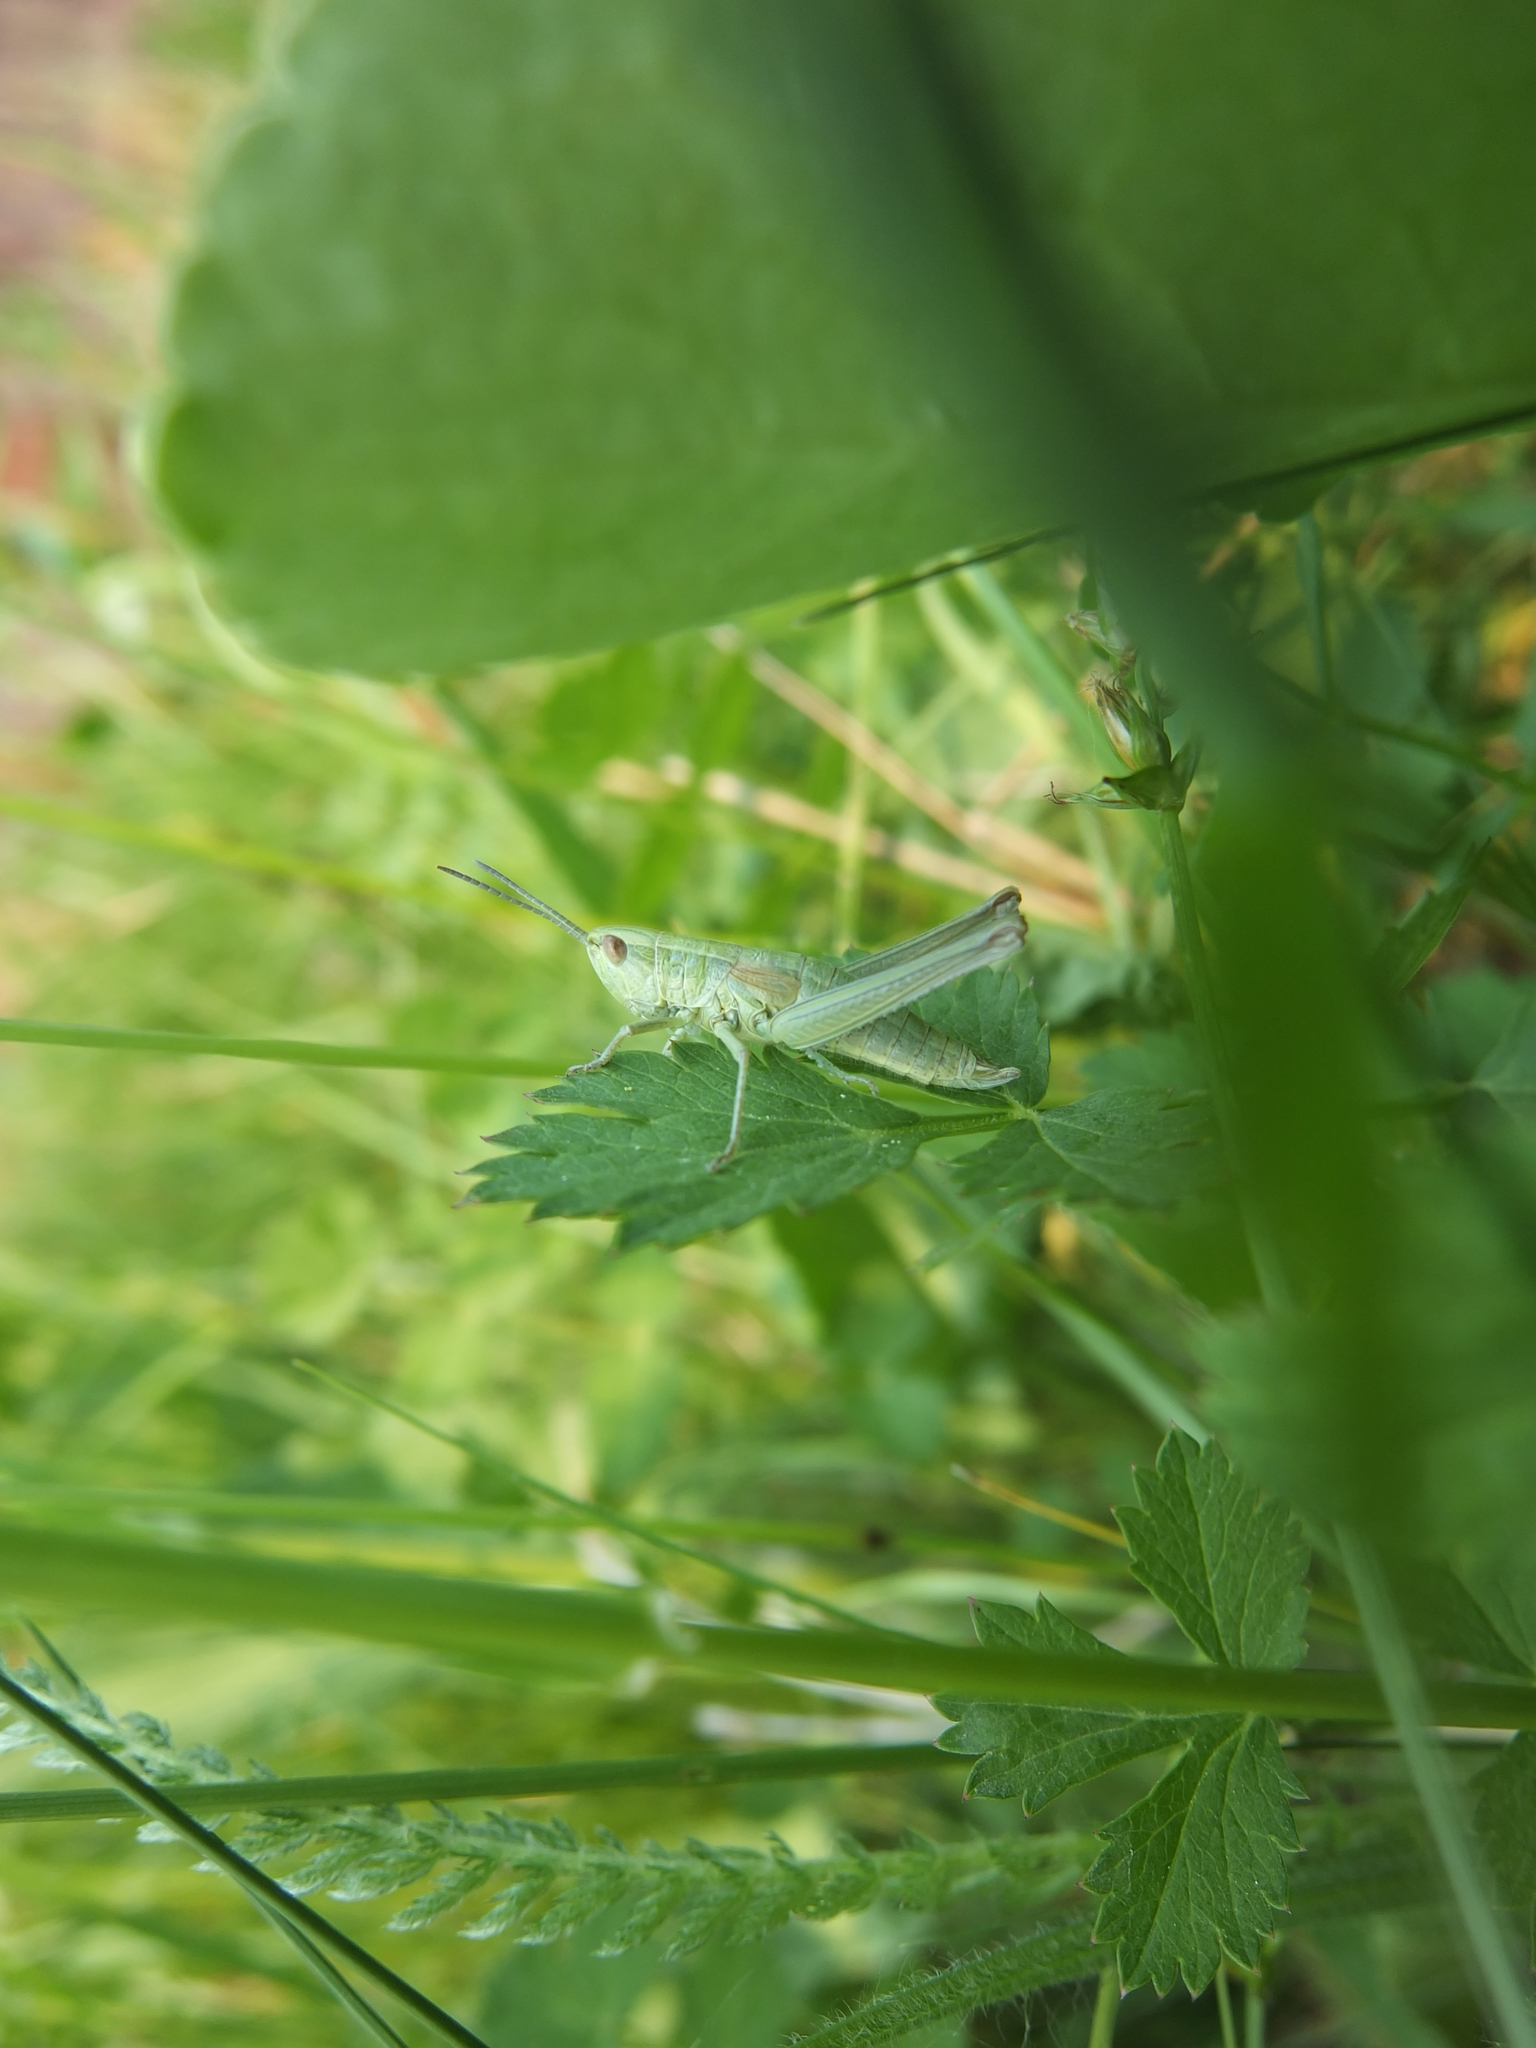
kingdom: Animalia
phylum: Arthropoda
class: Insecta
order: Orthoptera
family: Acrididae
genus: Euthystira
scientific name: Euthystira brachyptera
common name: Small gold grasshopper
